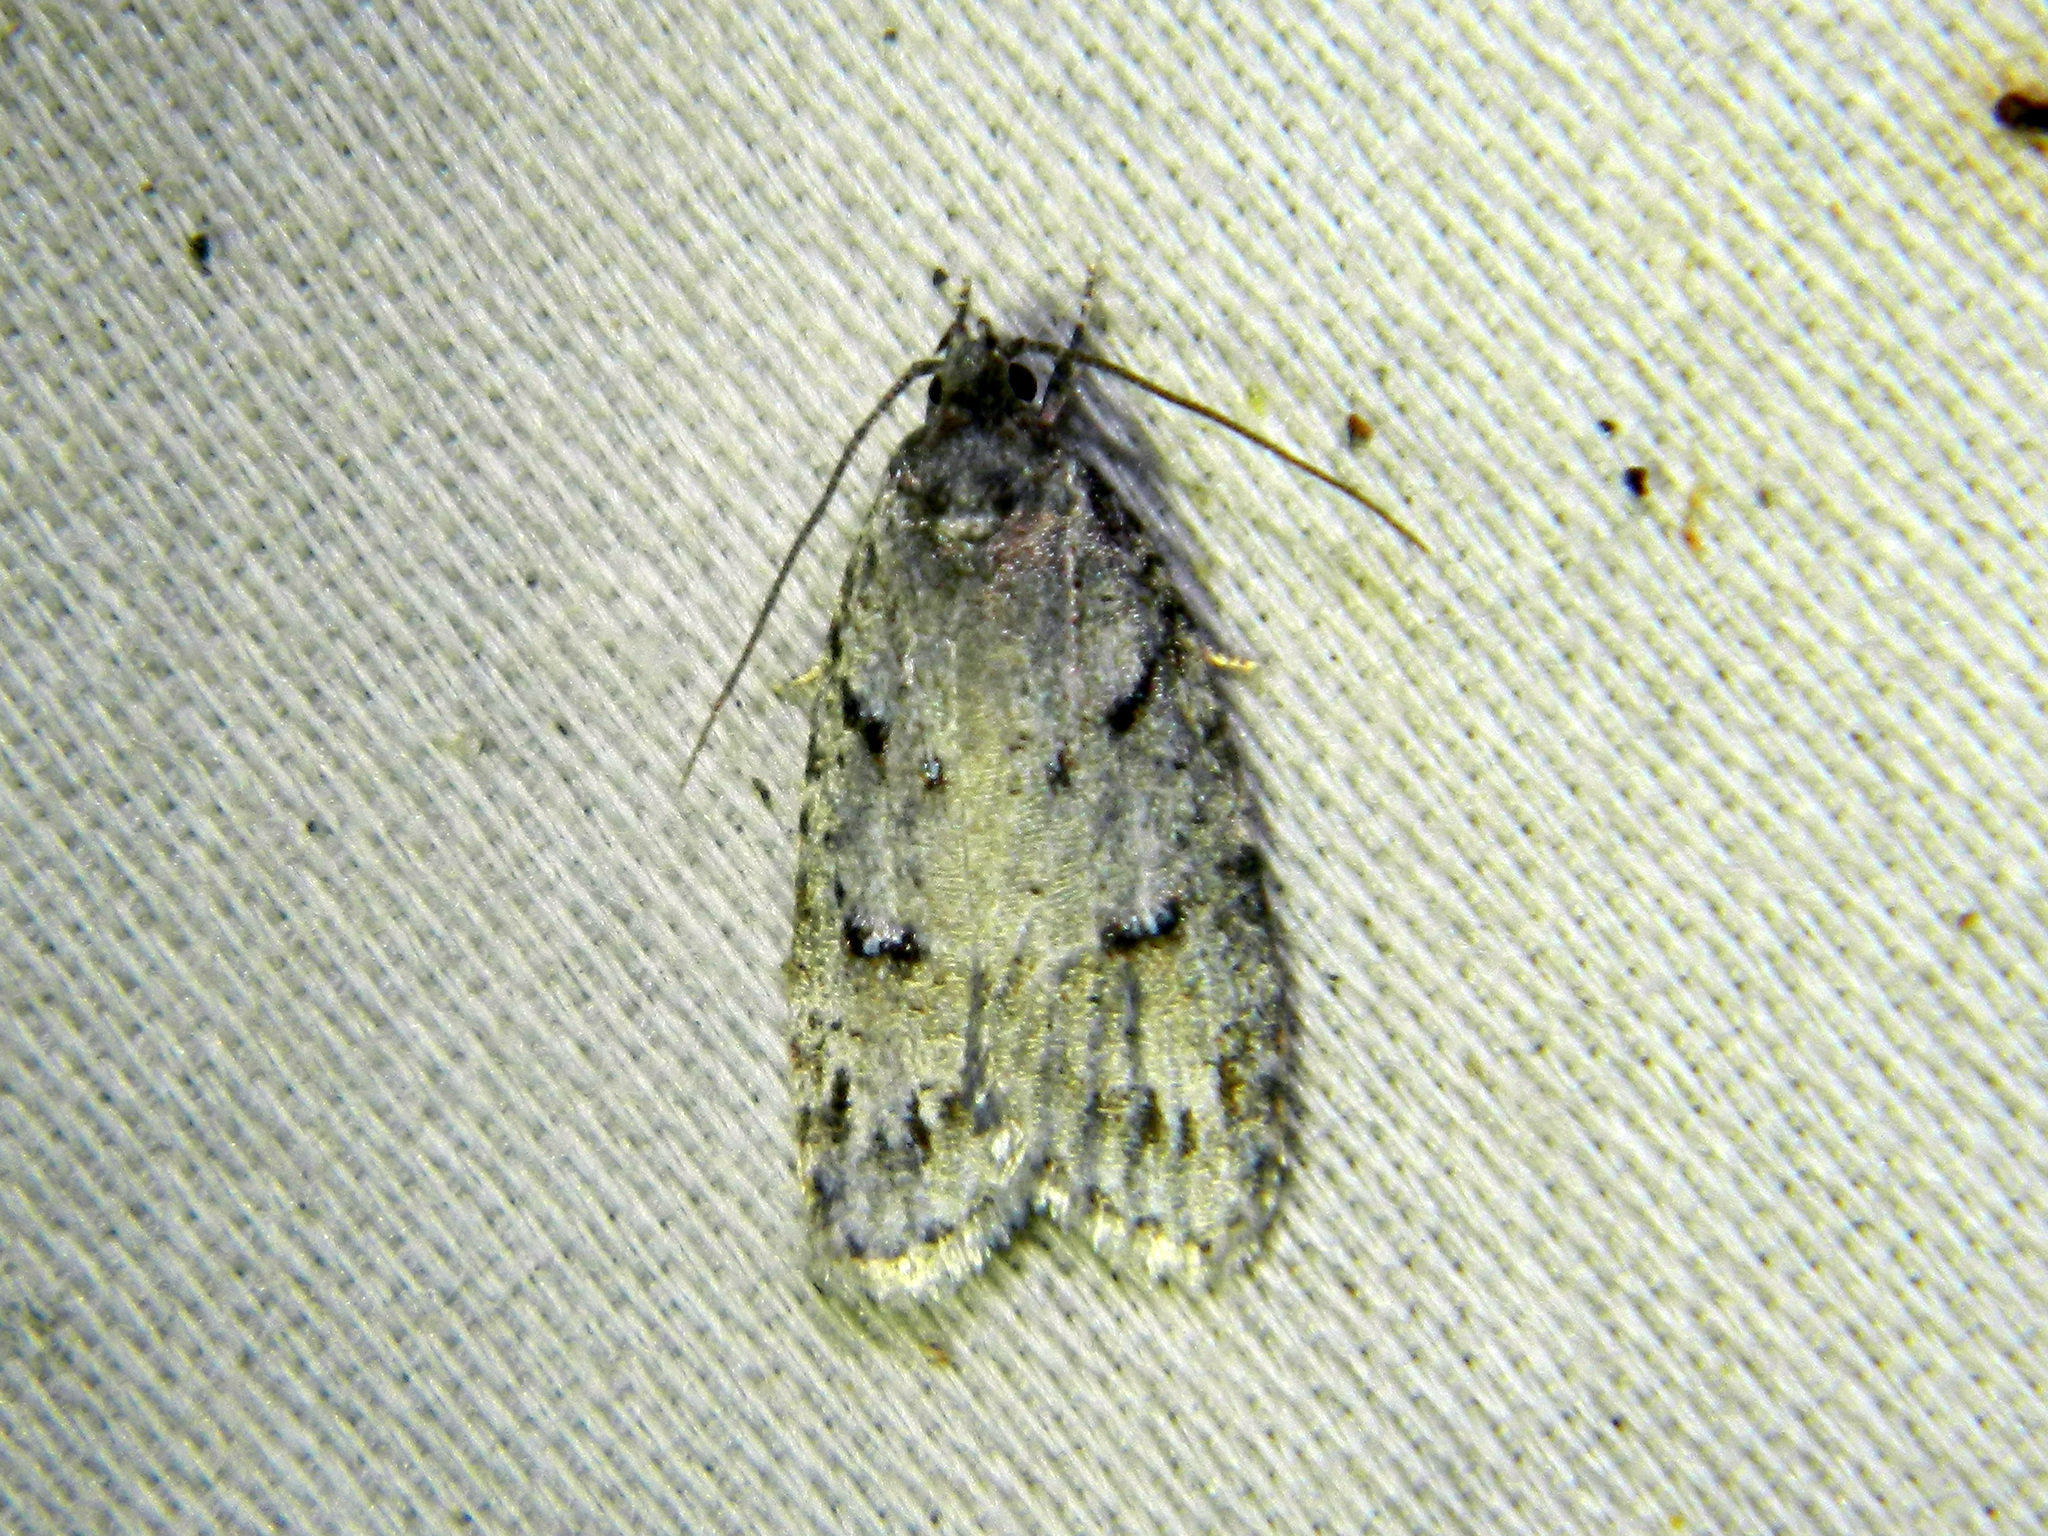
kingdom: Animalia
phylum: Arthropoda
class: Insecta
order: Lepidoptera
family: Depressariidae
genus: Bibarrambla
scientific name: Bibarrambla allenella
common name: Bog bibarrambla moth
